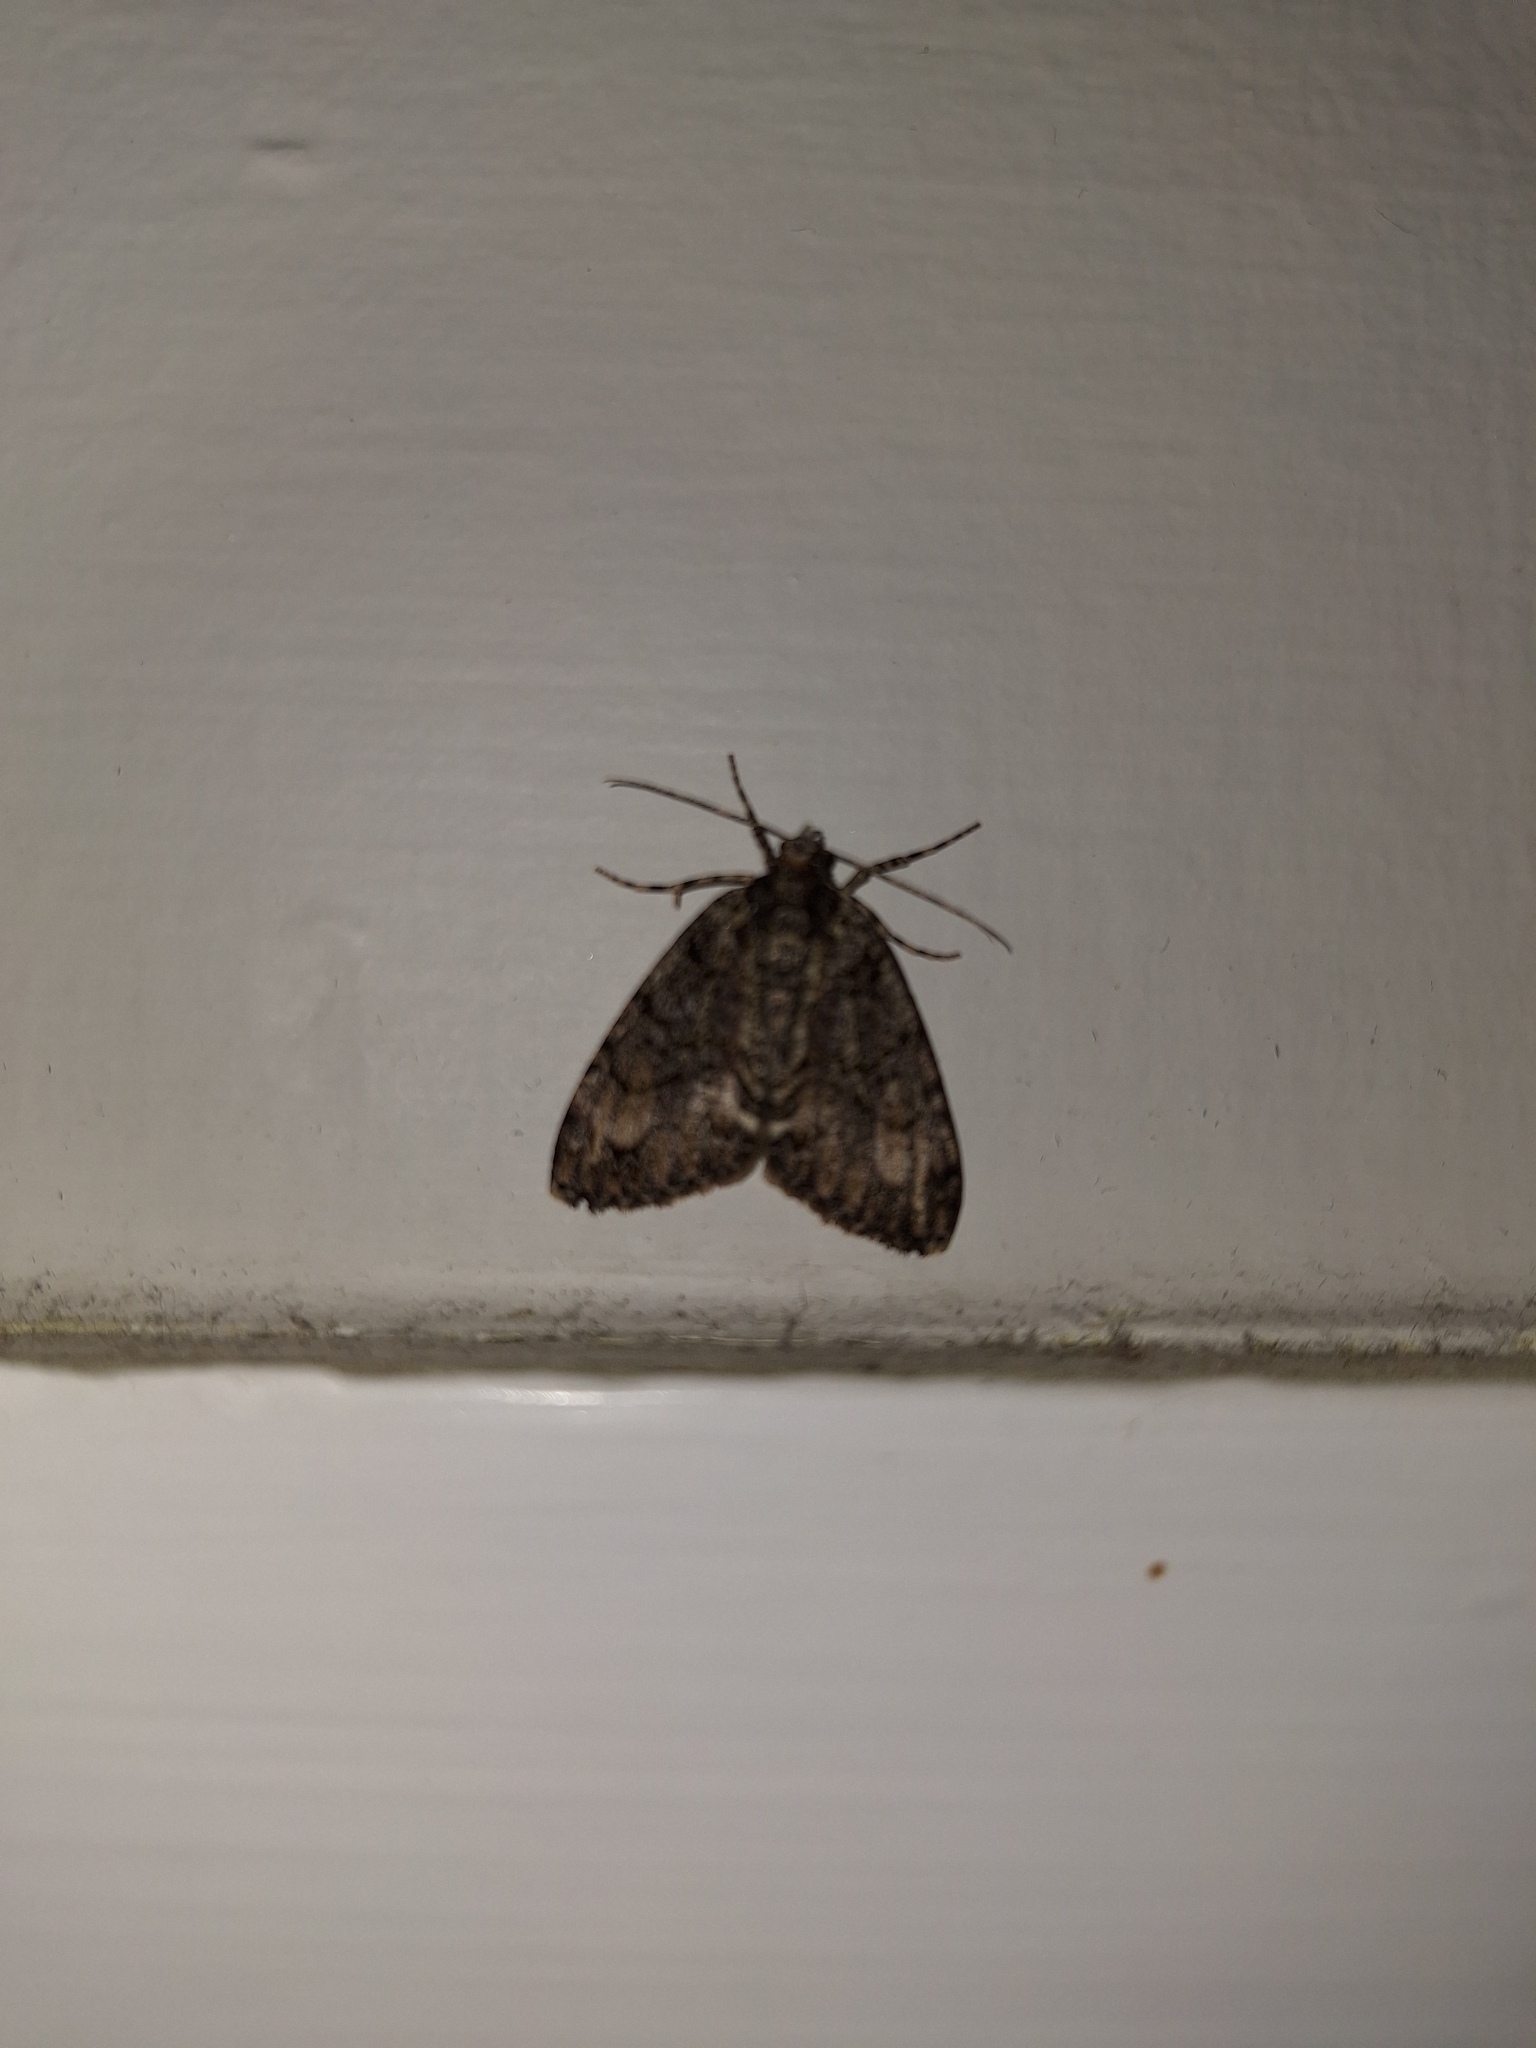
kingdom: Animalia
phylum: Arthropoda
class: Insecta
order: Lepidoptera
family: Geometridae
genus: Pseudocoremia
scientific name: Pseudocoremia suavis
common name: Common forest looper
